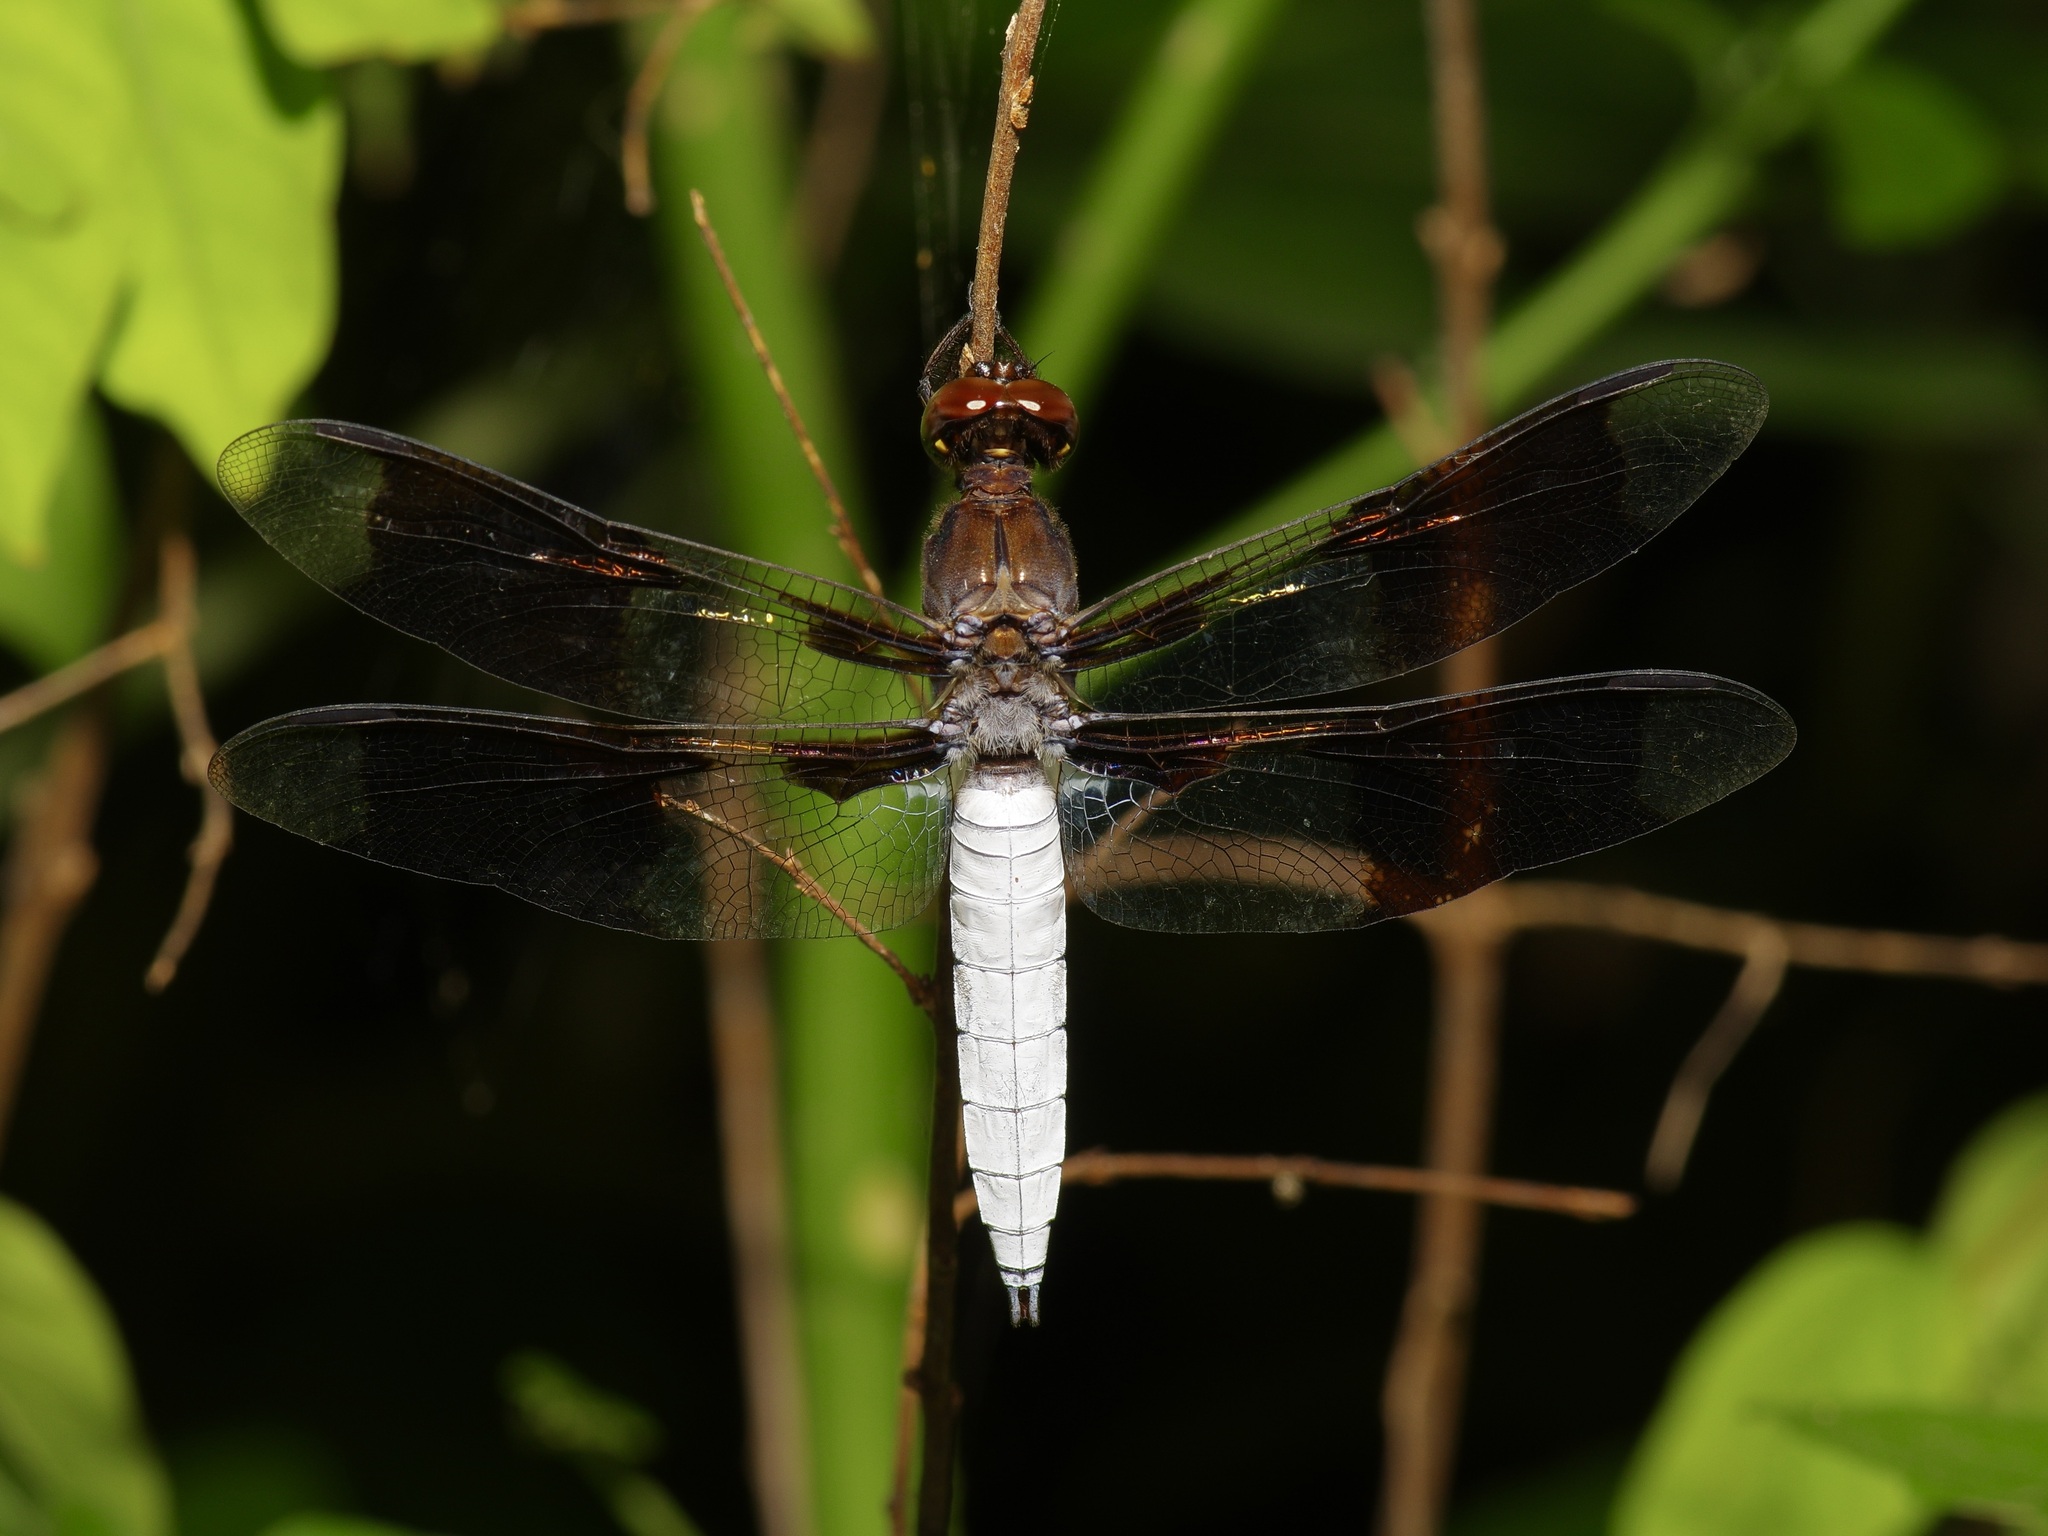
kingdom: Animalia
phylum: Arthropoda
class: Insecta
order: Odonata
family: Libellulidae
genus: Plathemis
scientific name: Plathemis lydia
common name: Common whitetail
